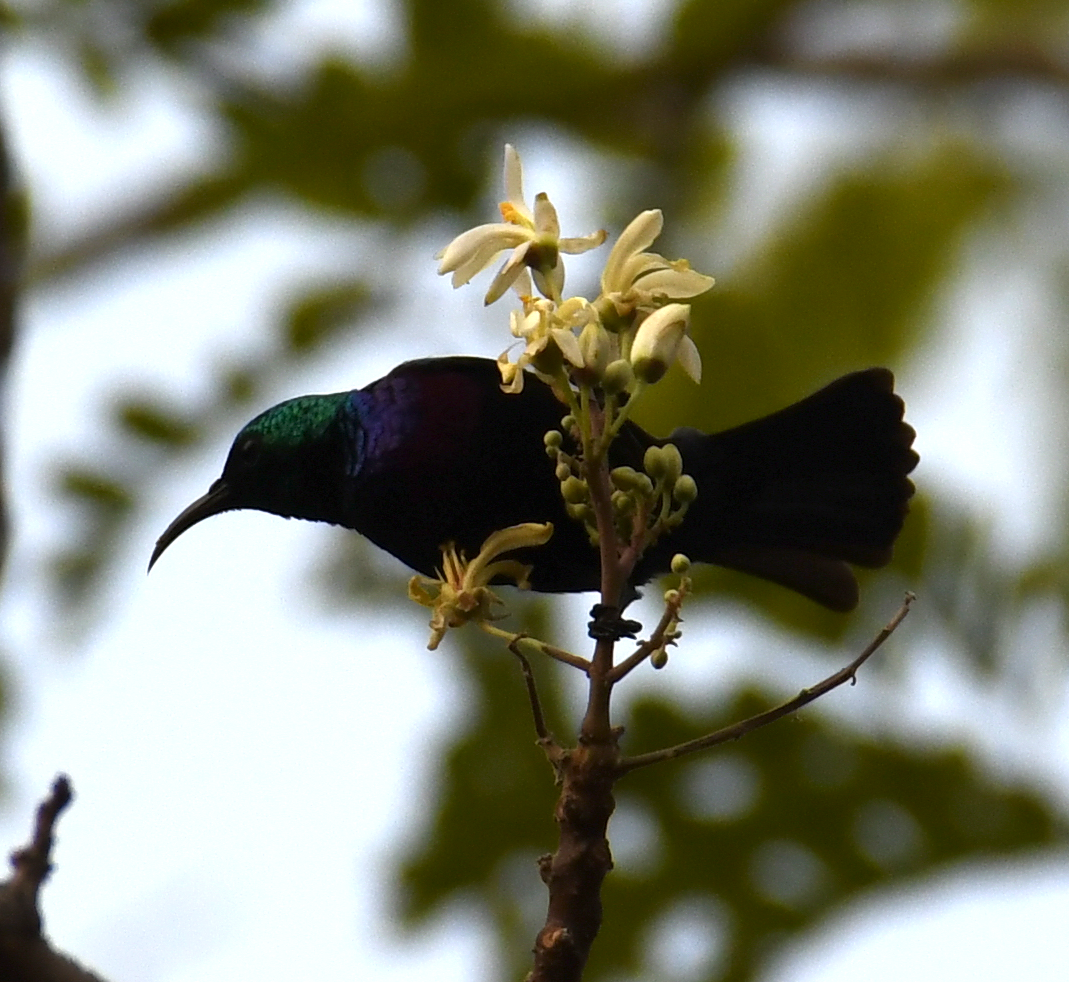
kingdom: Animalia
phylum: Chordata
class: Aves
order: Passeriformes
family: Nectariniidae
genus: Cinnyris
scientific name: Cinnyris mariquensis
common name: Marico sunbird
